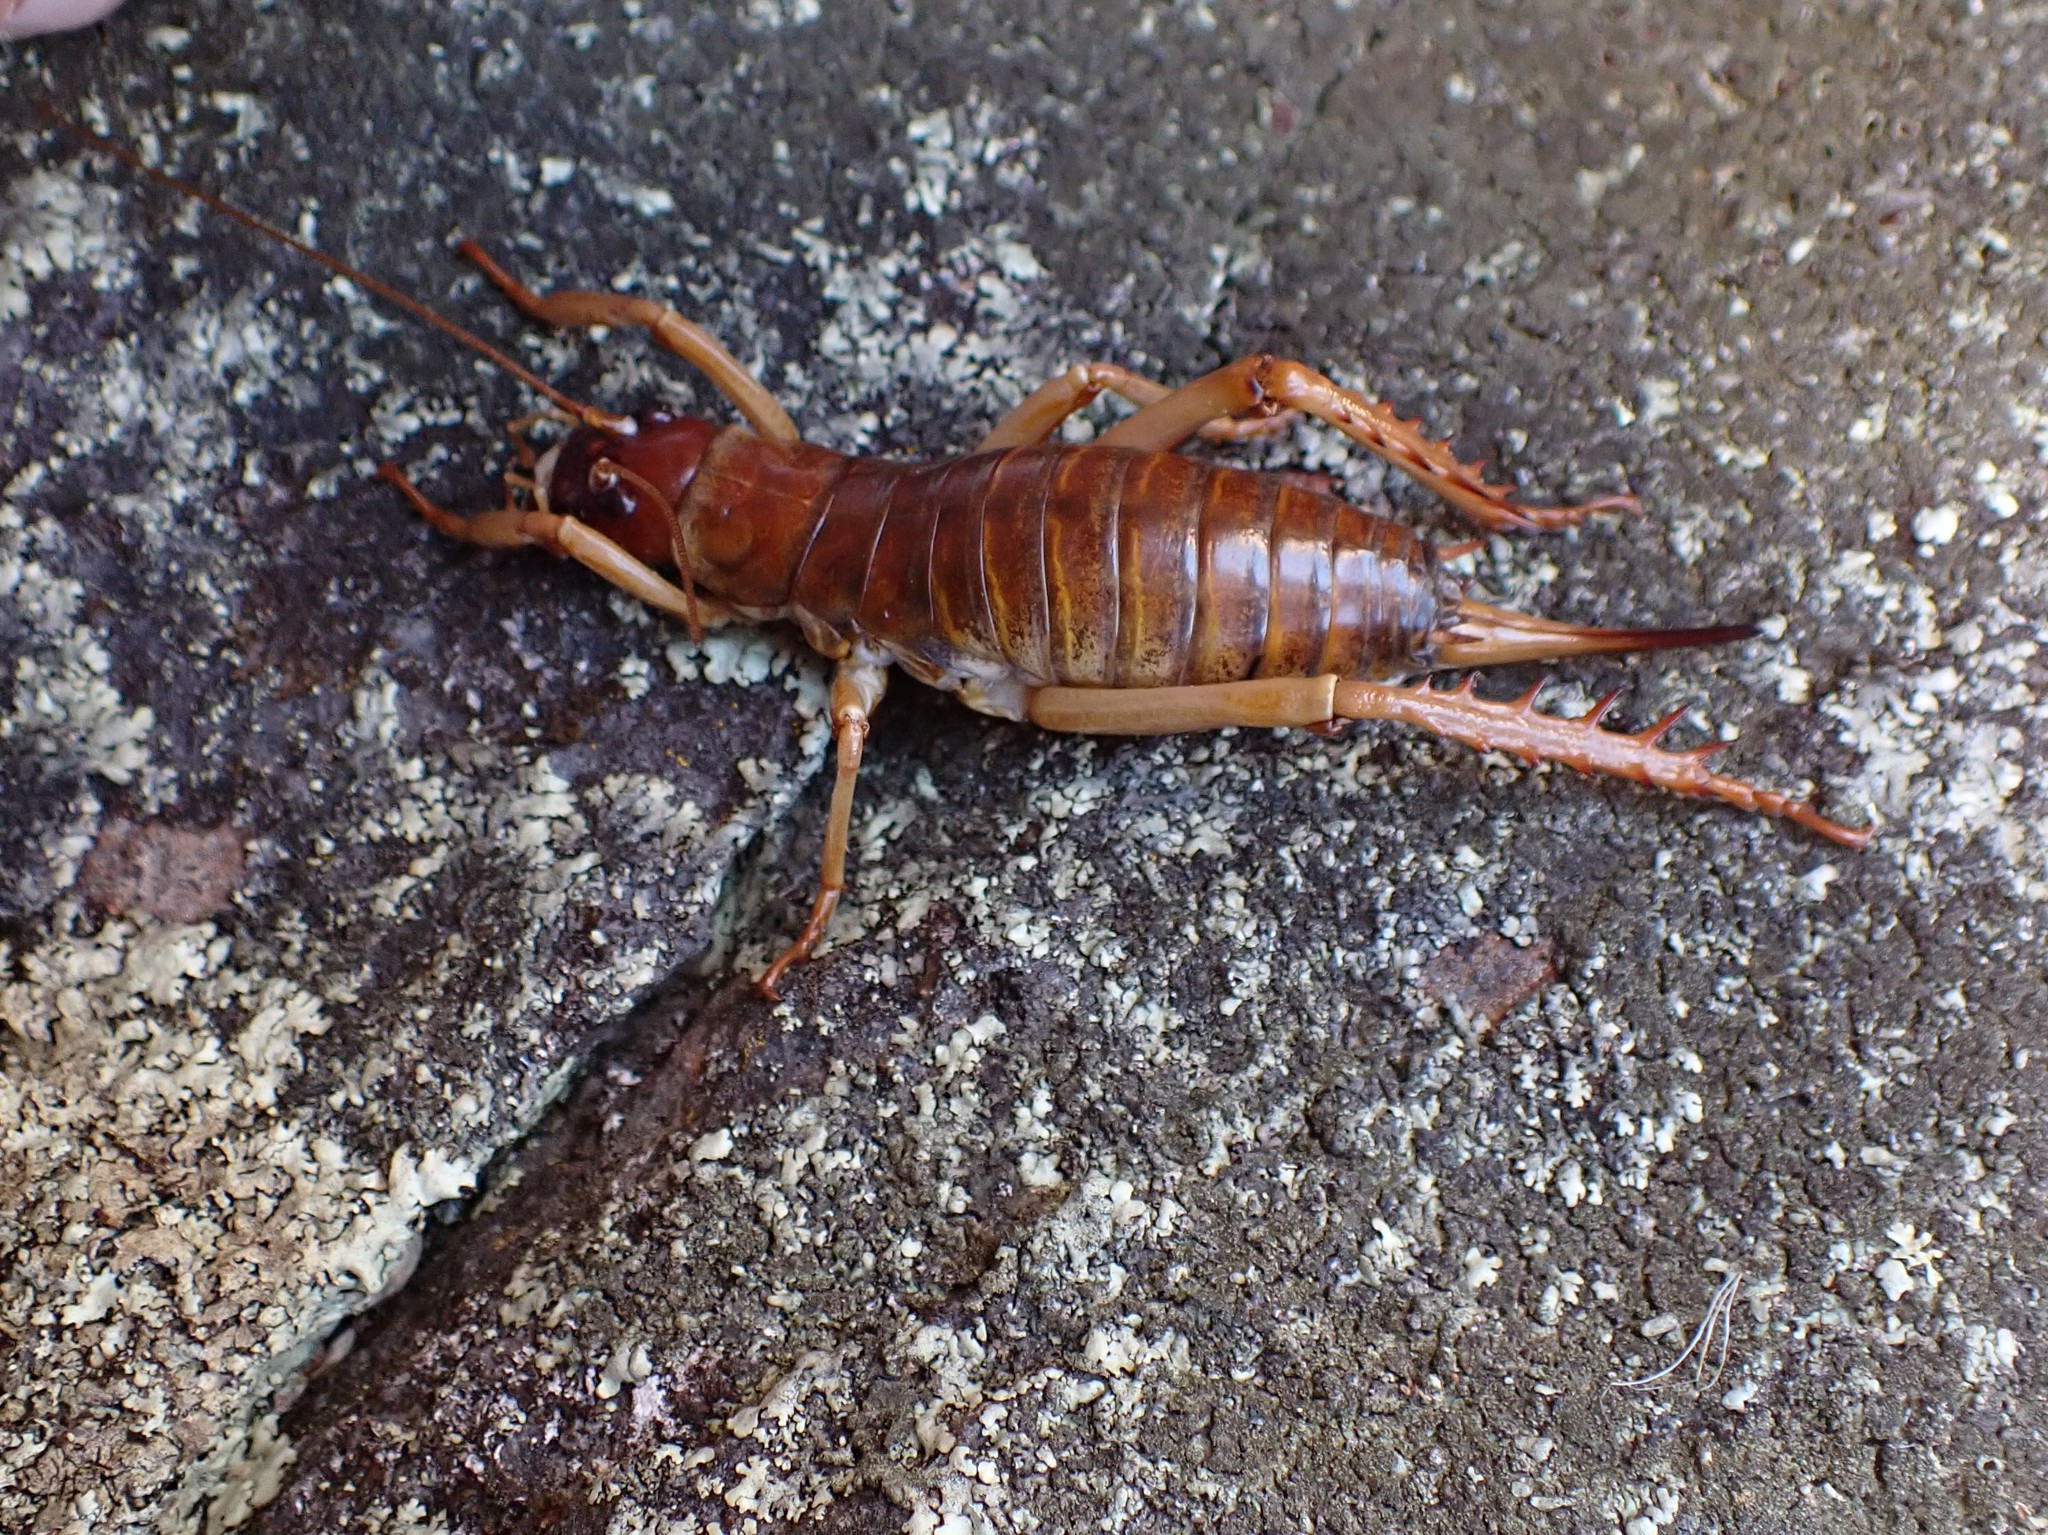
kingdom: Animalia
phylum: Arthropoda
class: Insecta
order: Orthoptera
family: Anostostomatidae
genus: Hemideina
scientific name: Hemideina ricta
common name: Banks peninsula tree weta
